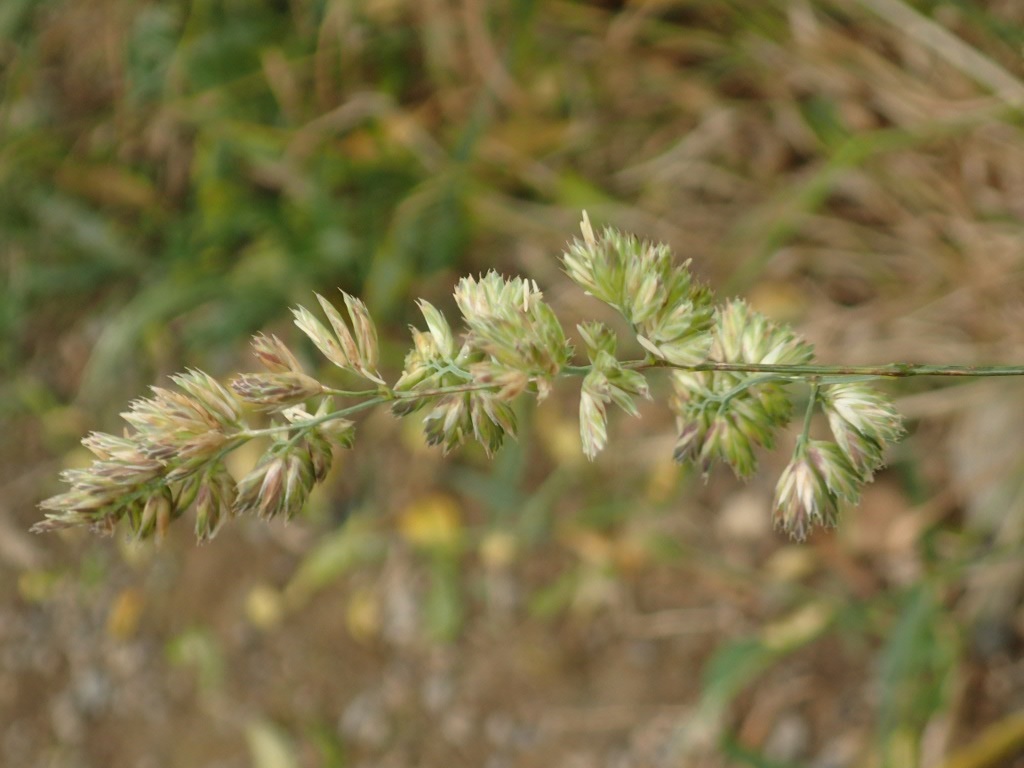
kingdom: Plantae
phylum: Tracheophyta
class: Liliopsida
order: Poales
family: Poaceae
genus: Dactylis
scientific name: Dactylis glomerata
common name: Orchardgrass
